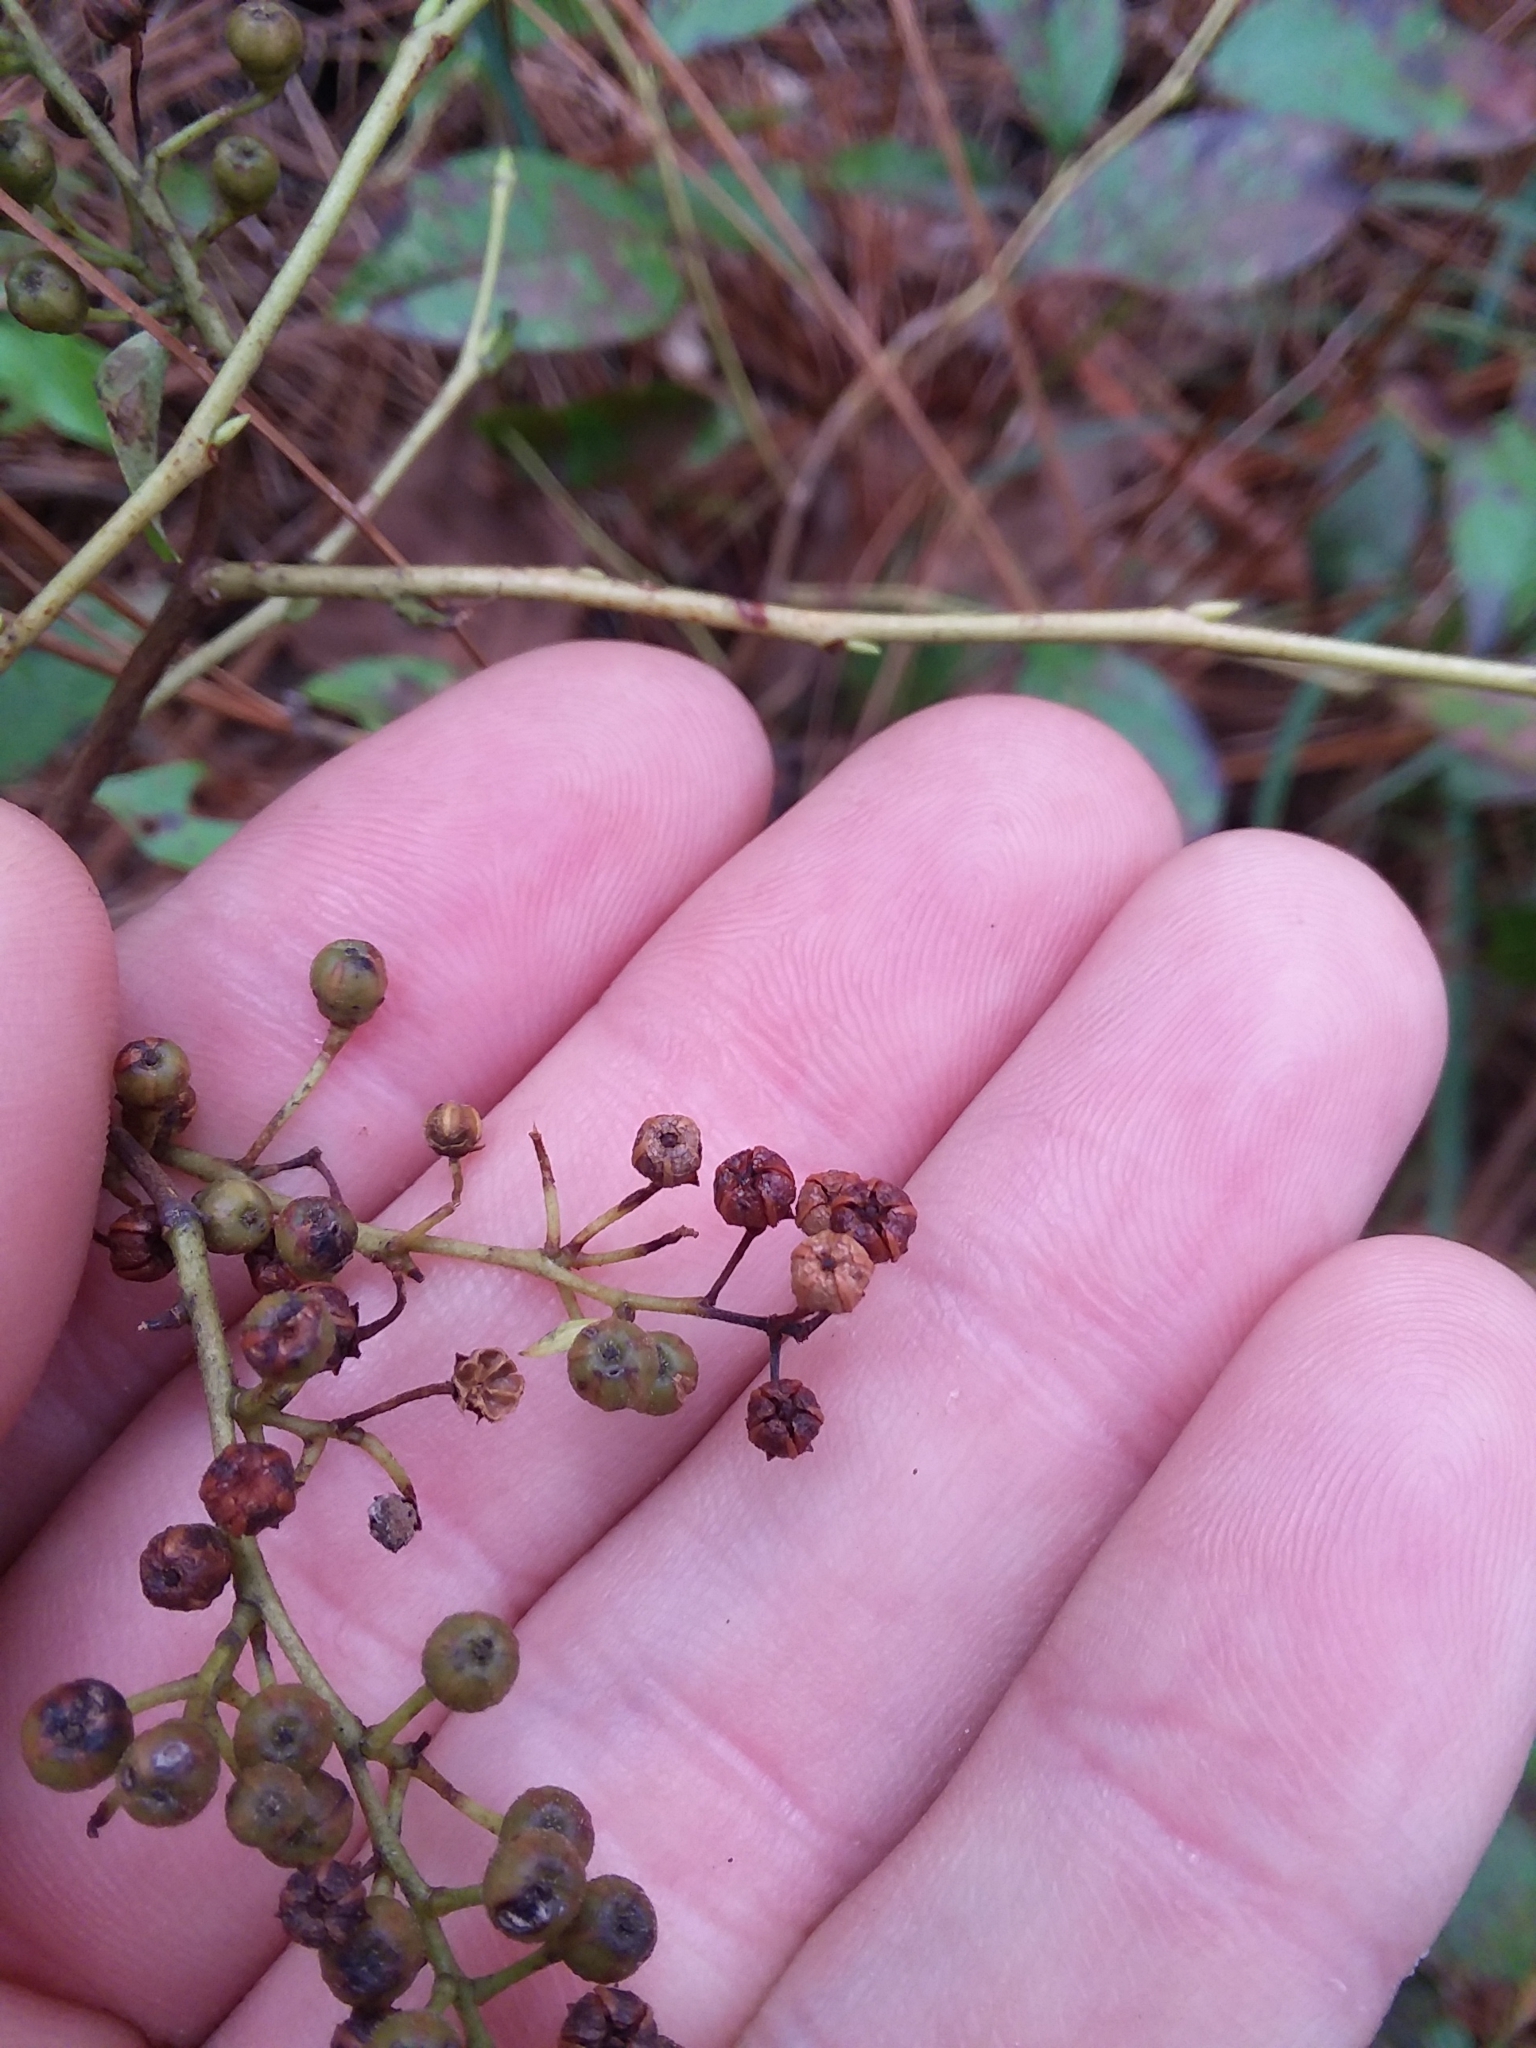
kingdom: Plantae
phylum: Tracheophyta
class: Magnoliopsida
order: Ericales
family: Ericaceae
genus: Lyonia
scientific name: Lyonia ligustrina
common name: Maleberry
